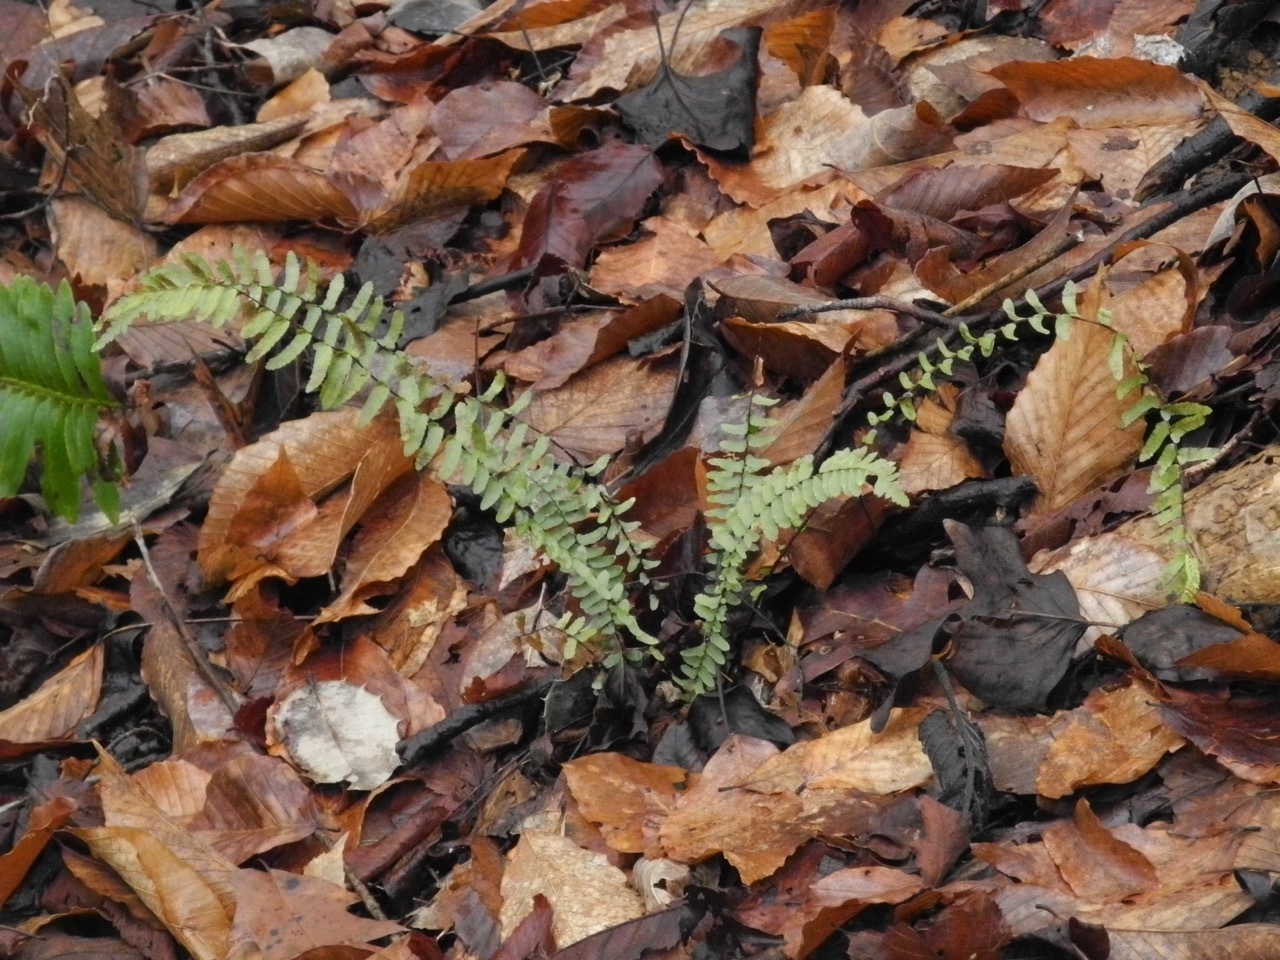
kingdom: Plantae
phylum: Tracheophyta
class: Polypodiopsida
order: Polypodiales
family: Aspleniaceae
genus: Asplenium
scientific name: Asplenium platyneuron
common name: Ebony spleenwort
